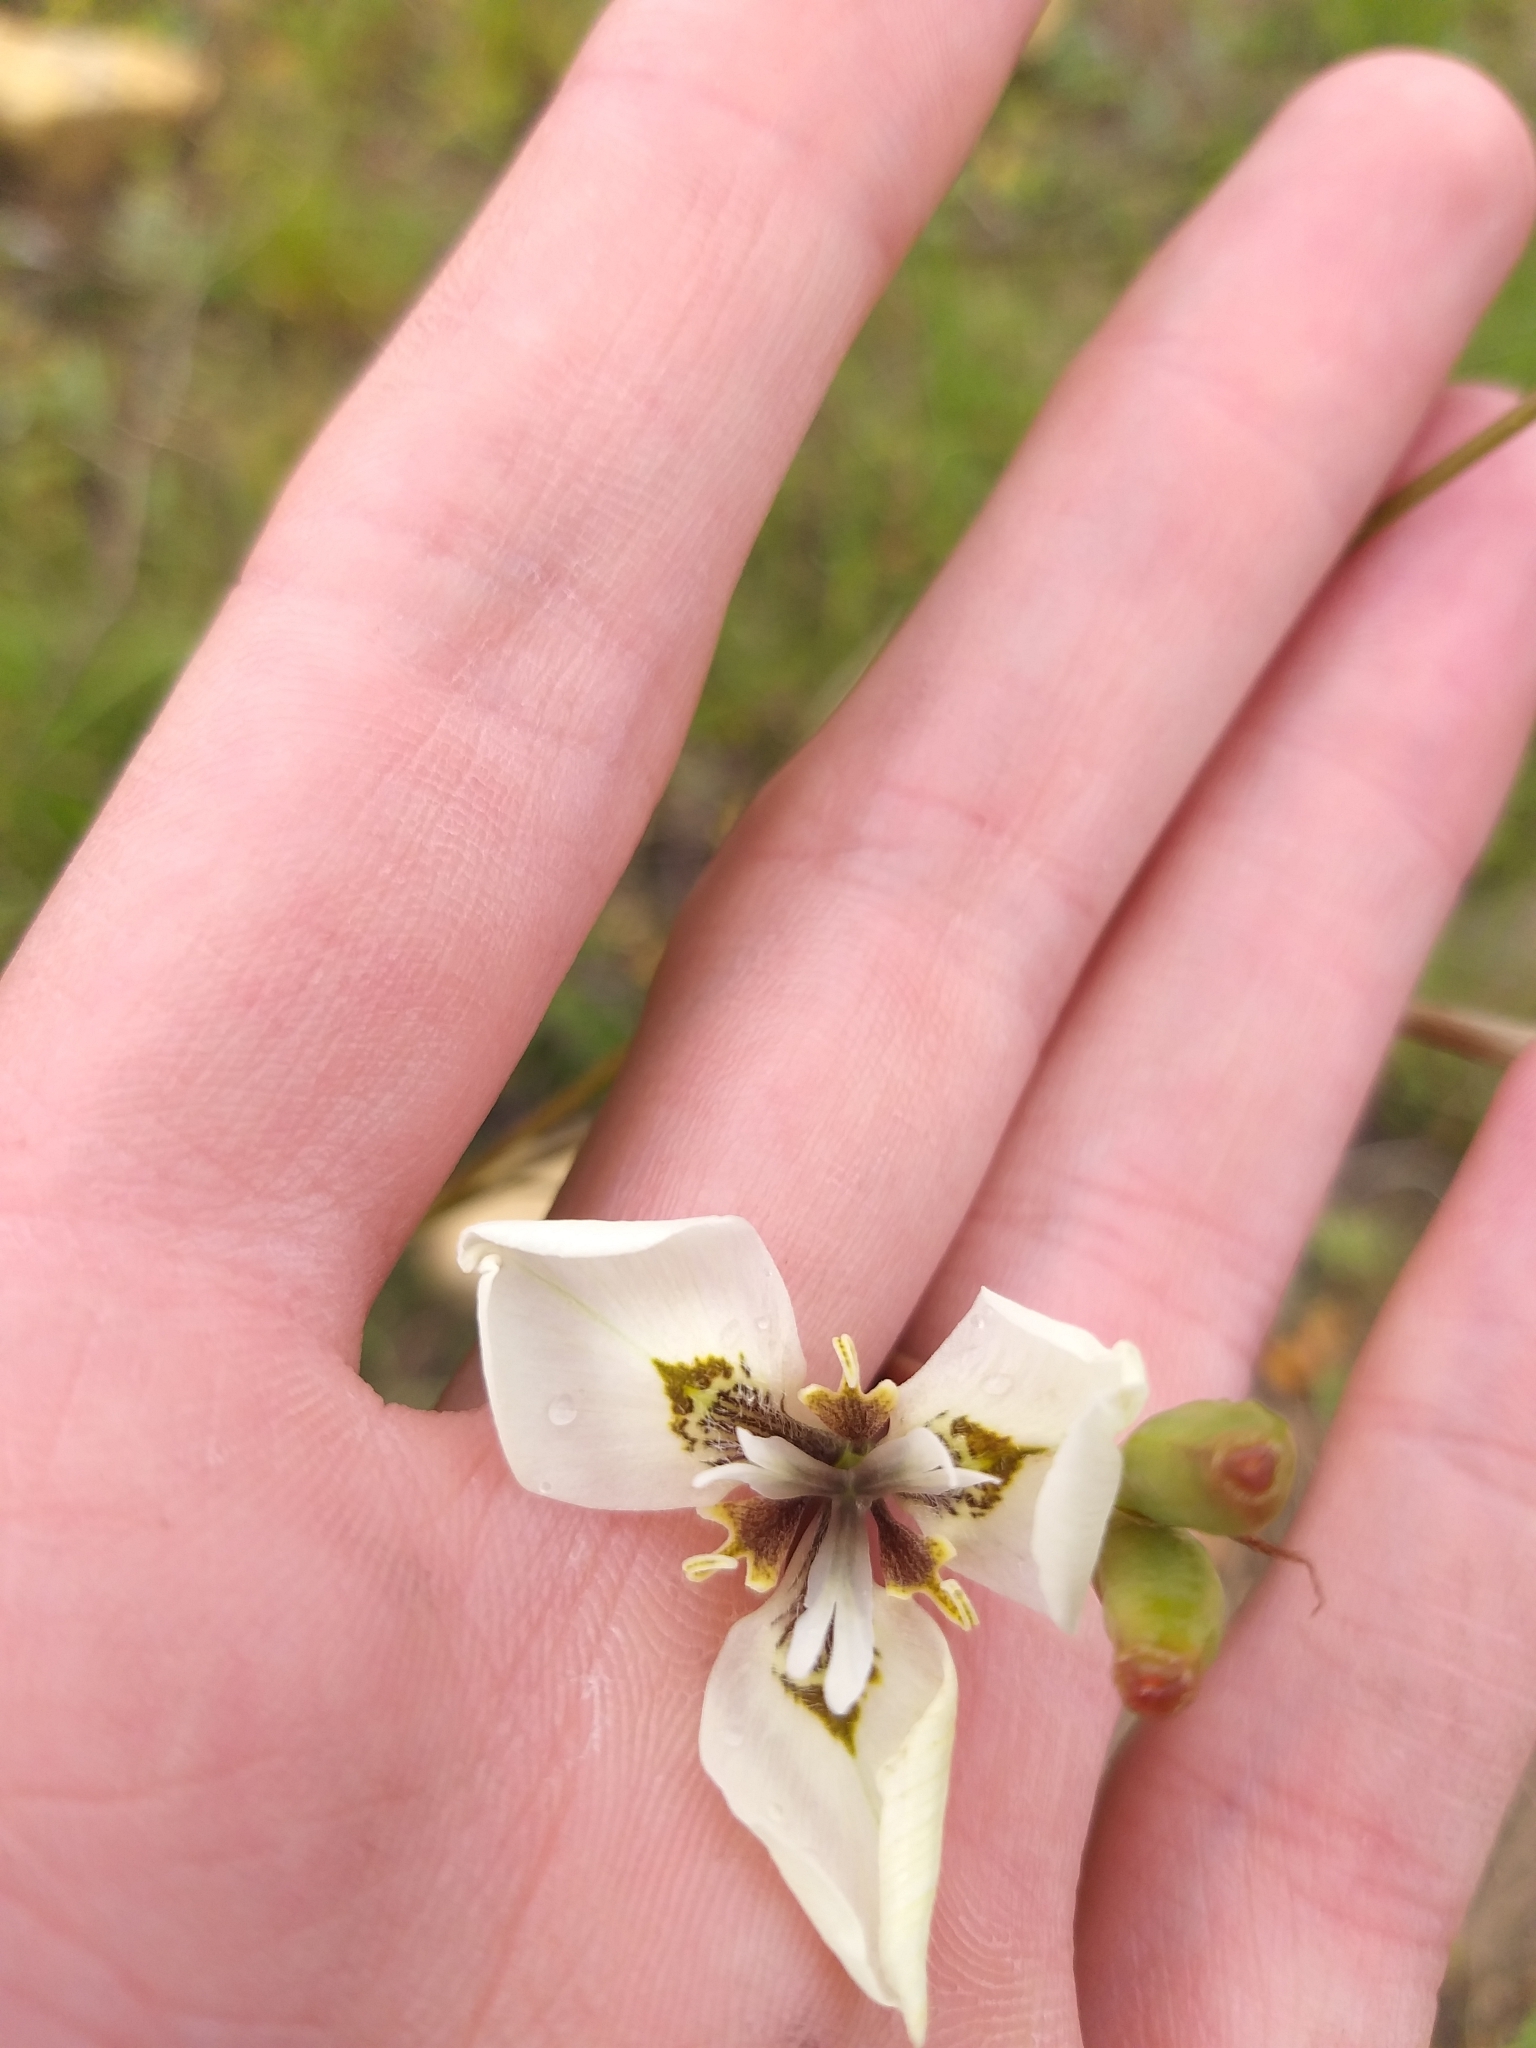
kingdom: Plantae
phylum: Tracheophyta
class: Liliopsida
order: Asparagales
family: Iridaceae
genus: Moraea
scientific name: Moraea tricuspidata
